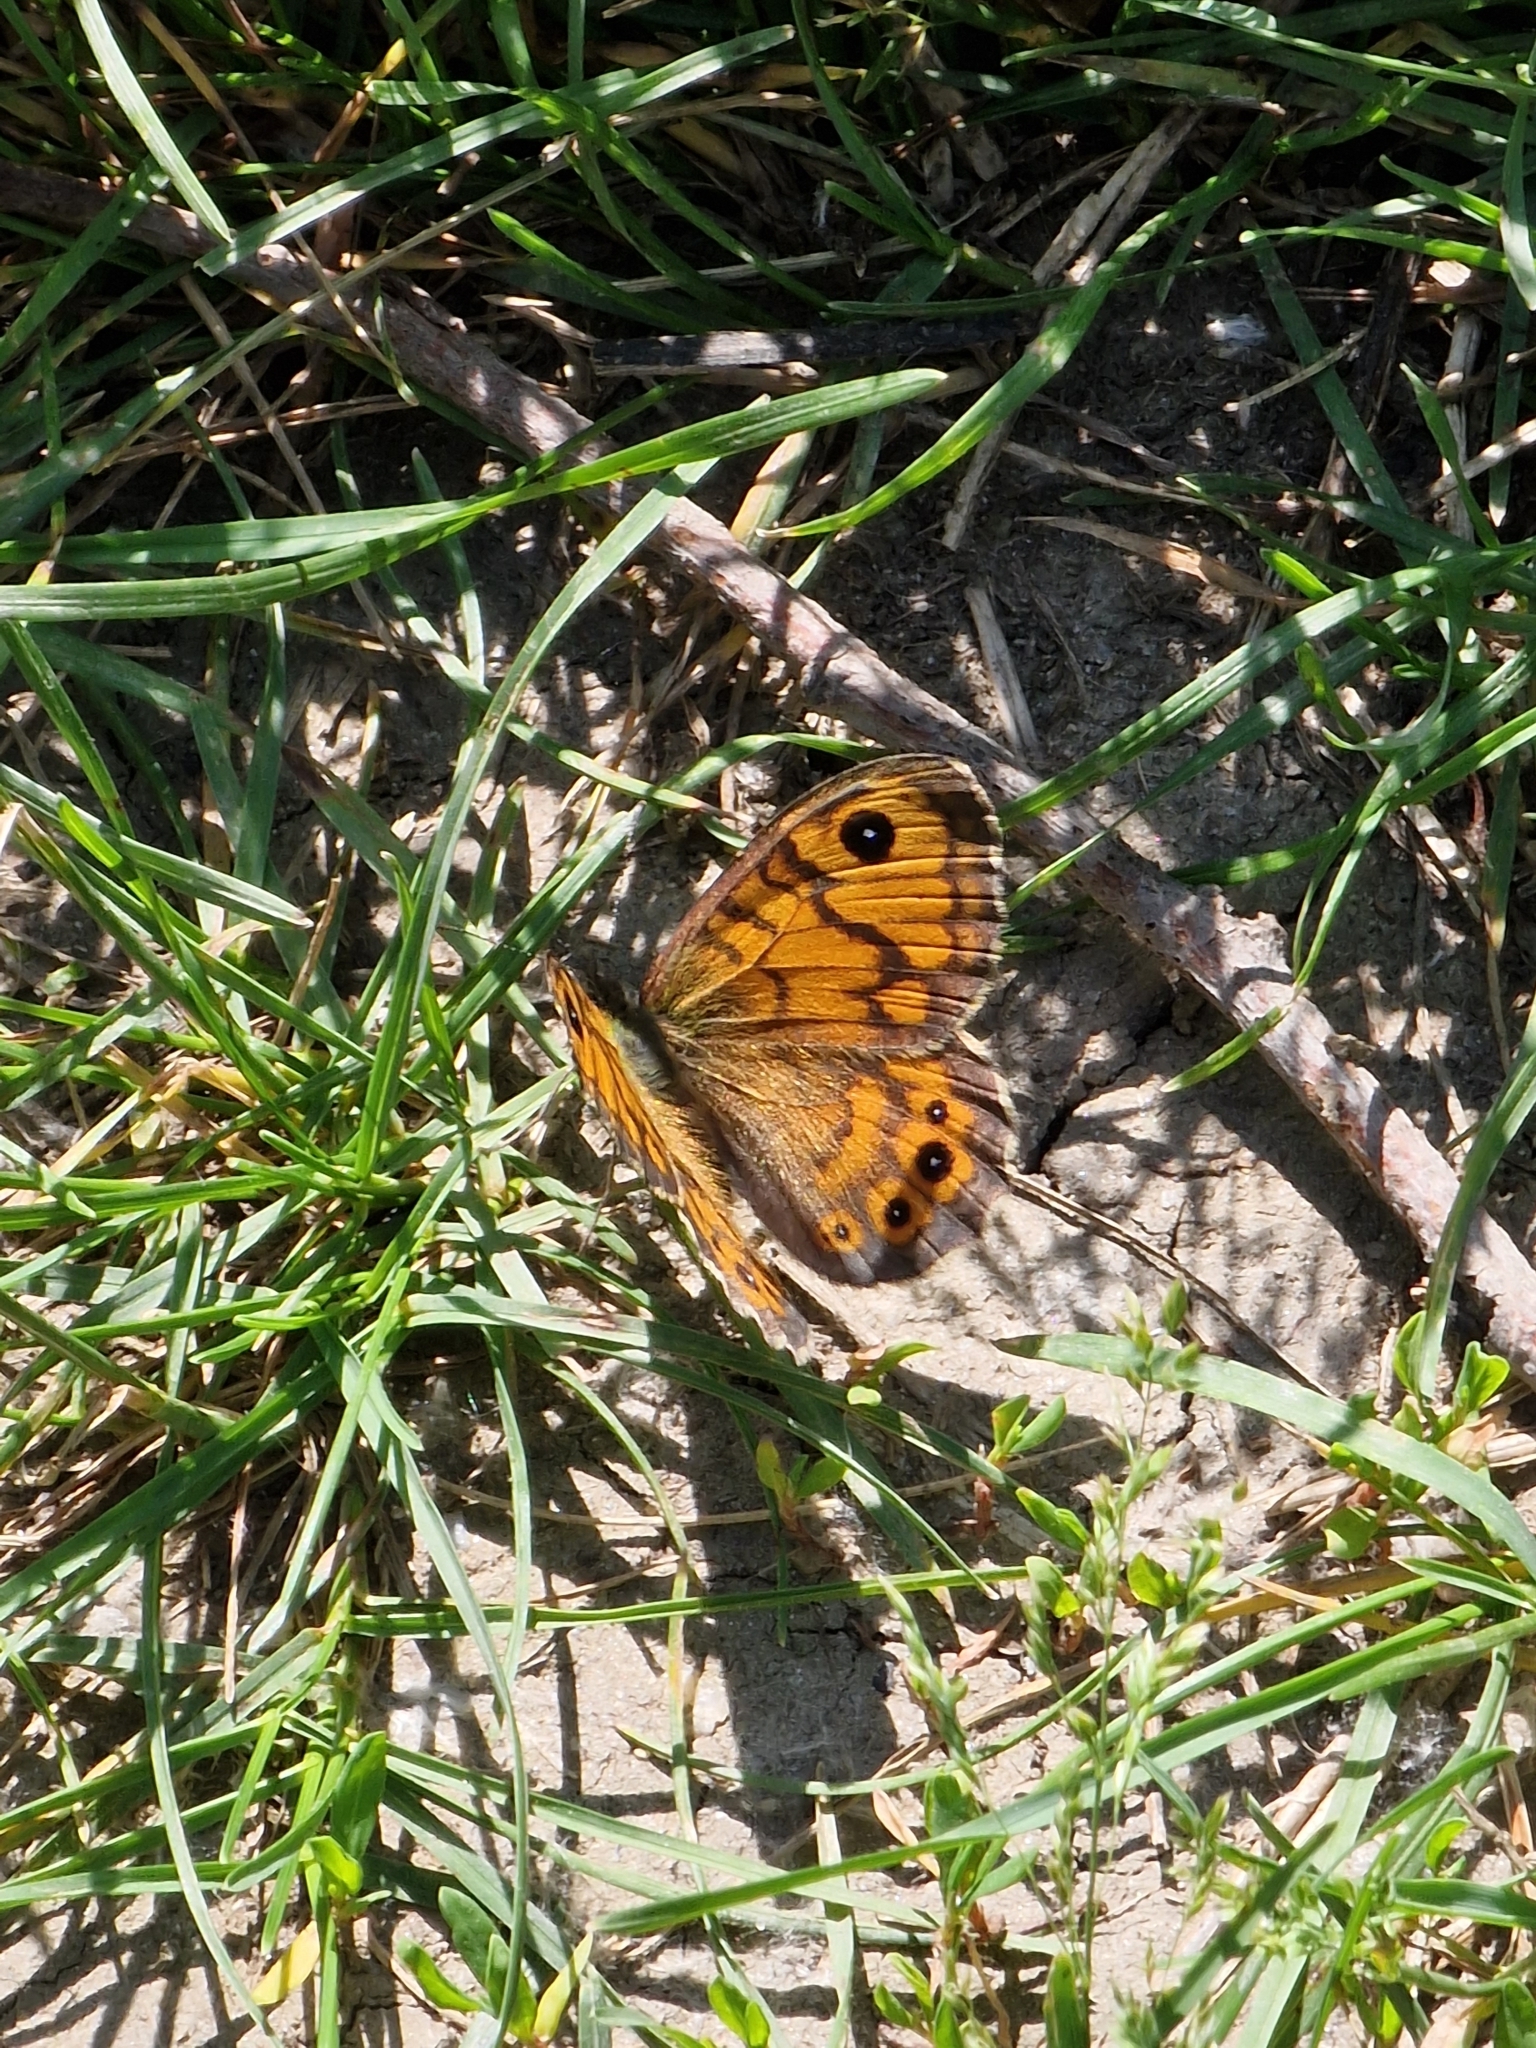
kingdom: Animalia
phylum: Arthropoda
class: Insecta
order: Lepidoptera
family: Nymphalidae
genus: Pararge
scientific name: Pararge Lasiommata megera
